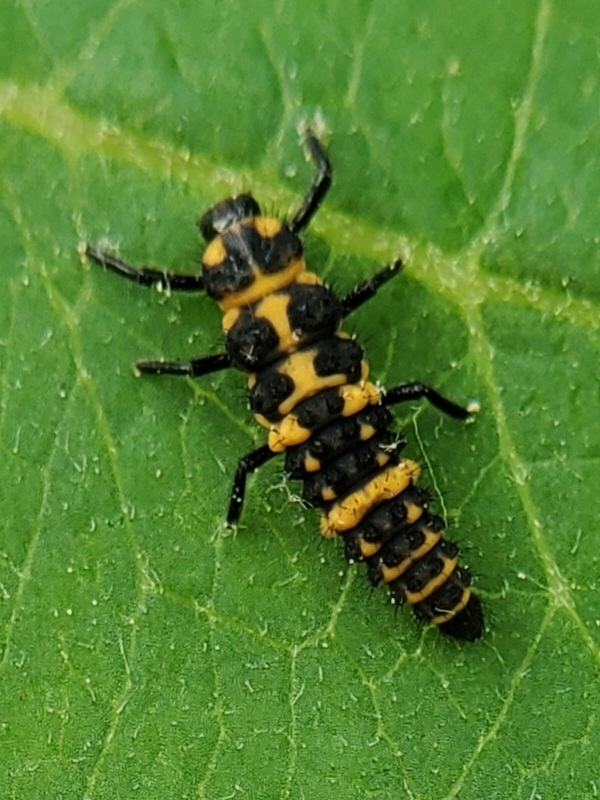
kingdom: Animalia
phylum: Arthropoda
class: Insecta
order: Coleoptera
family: Coccinellidae
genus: Coleomegilla
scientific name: Coleomegilla maculata
